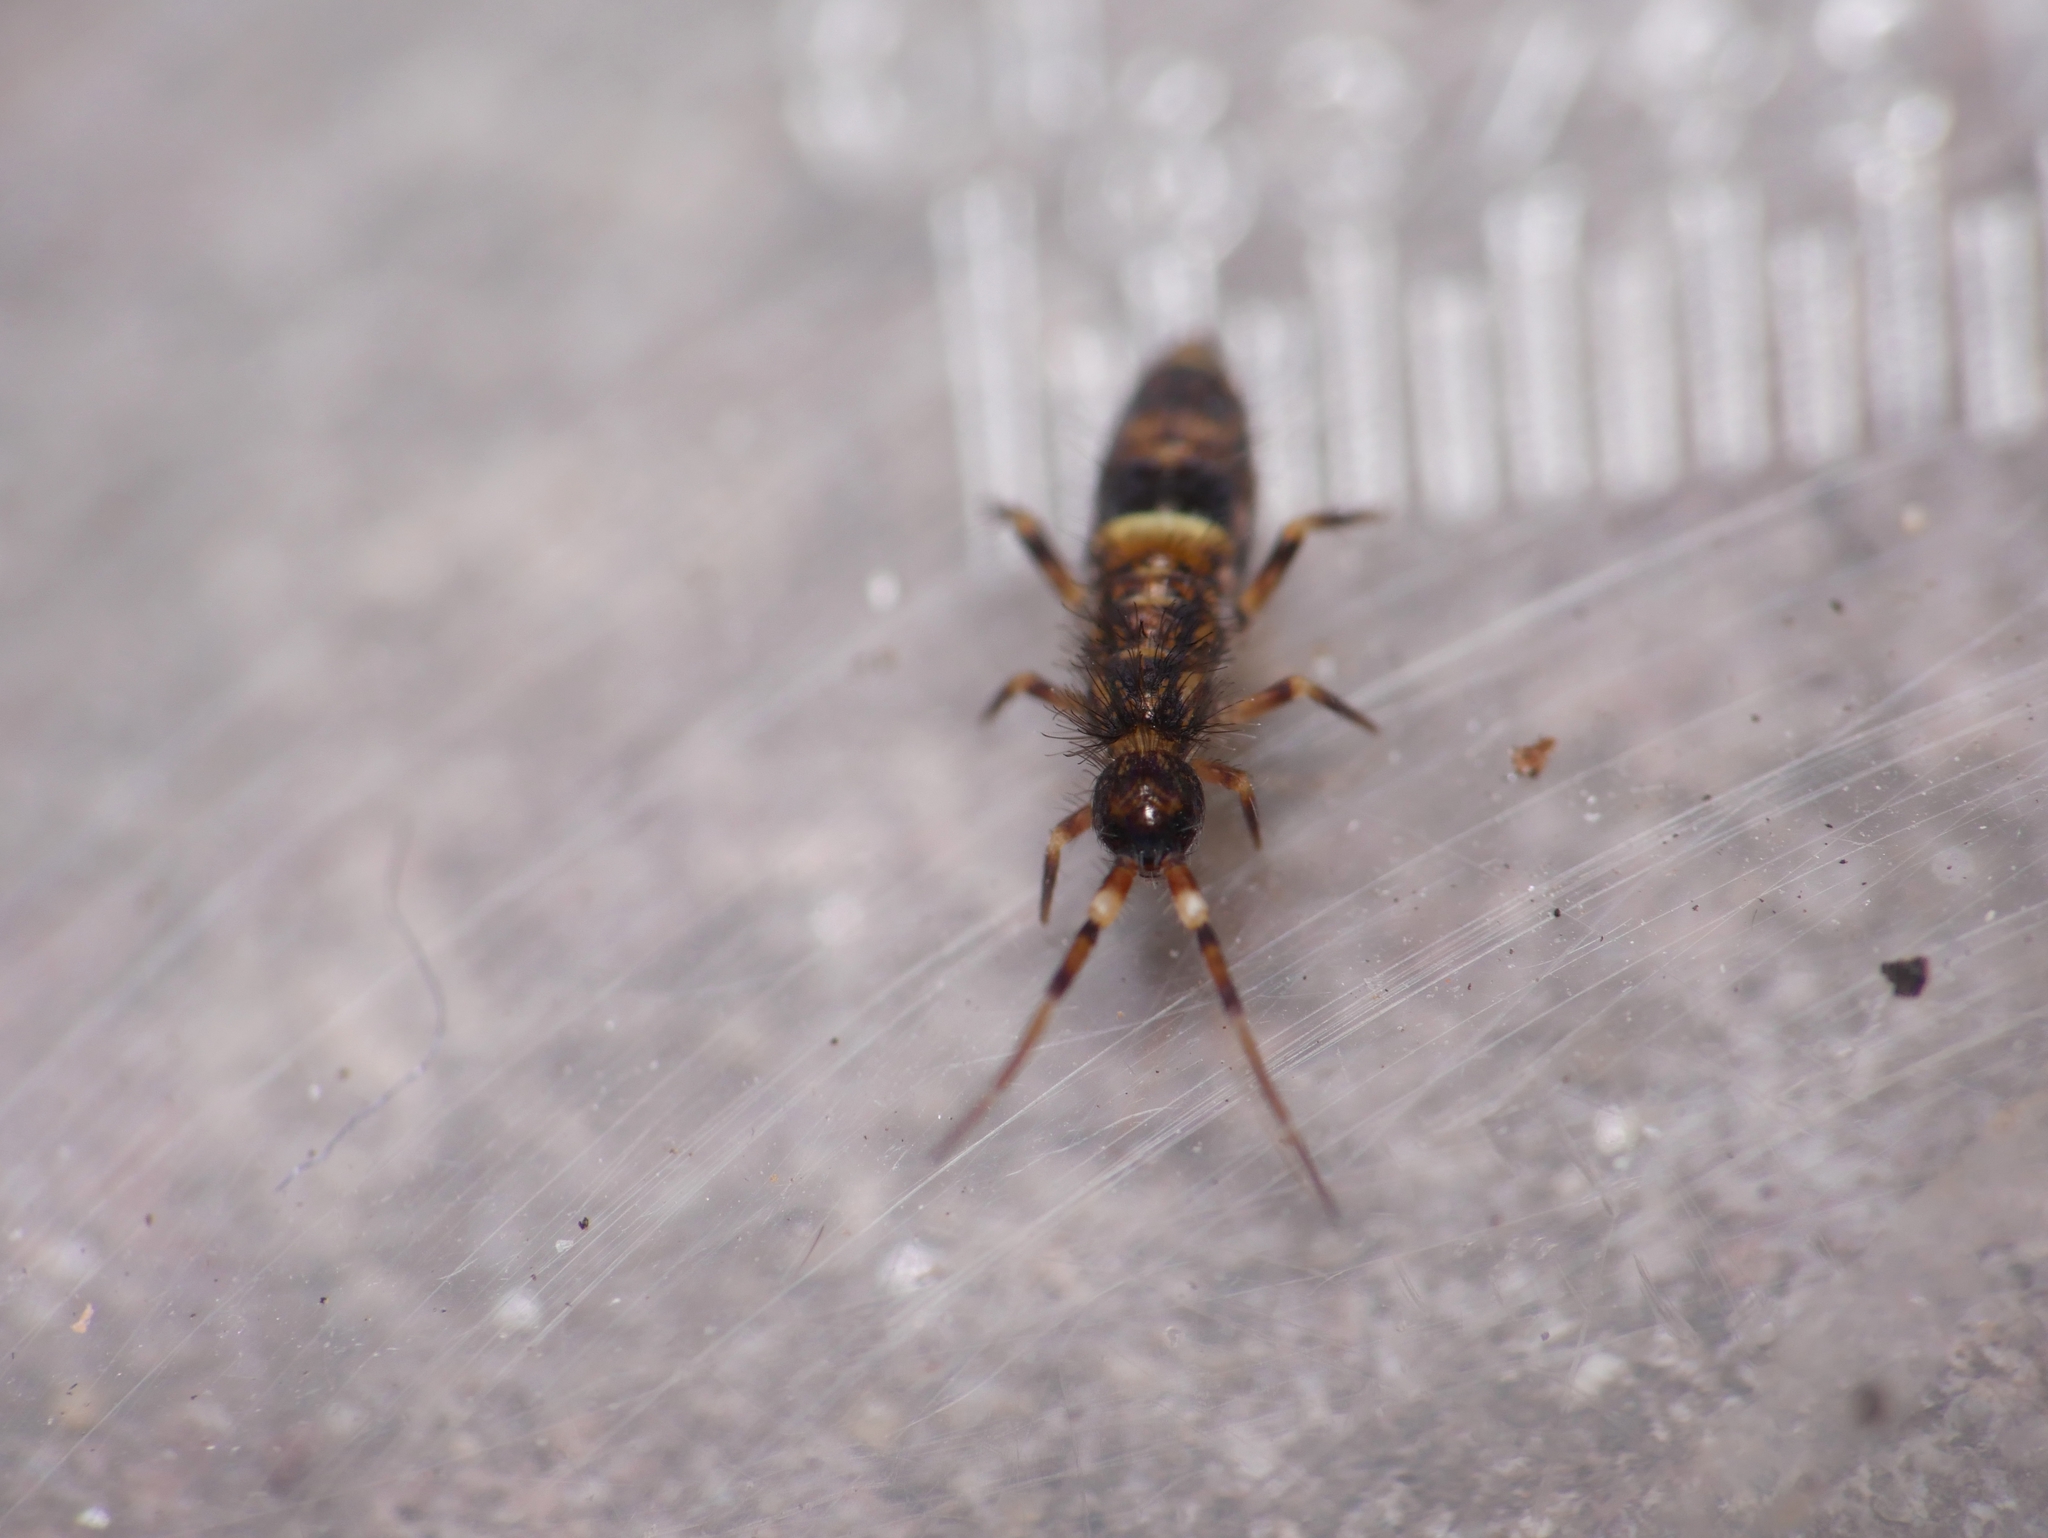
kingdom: Animalia
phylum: Arthropoda
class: Collembola
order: Entomobryomorpha
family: Orchesellidae
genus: Orchesella
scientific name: Orchesella cincta
